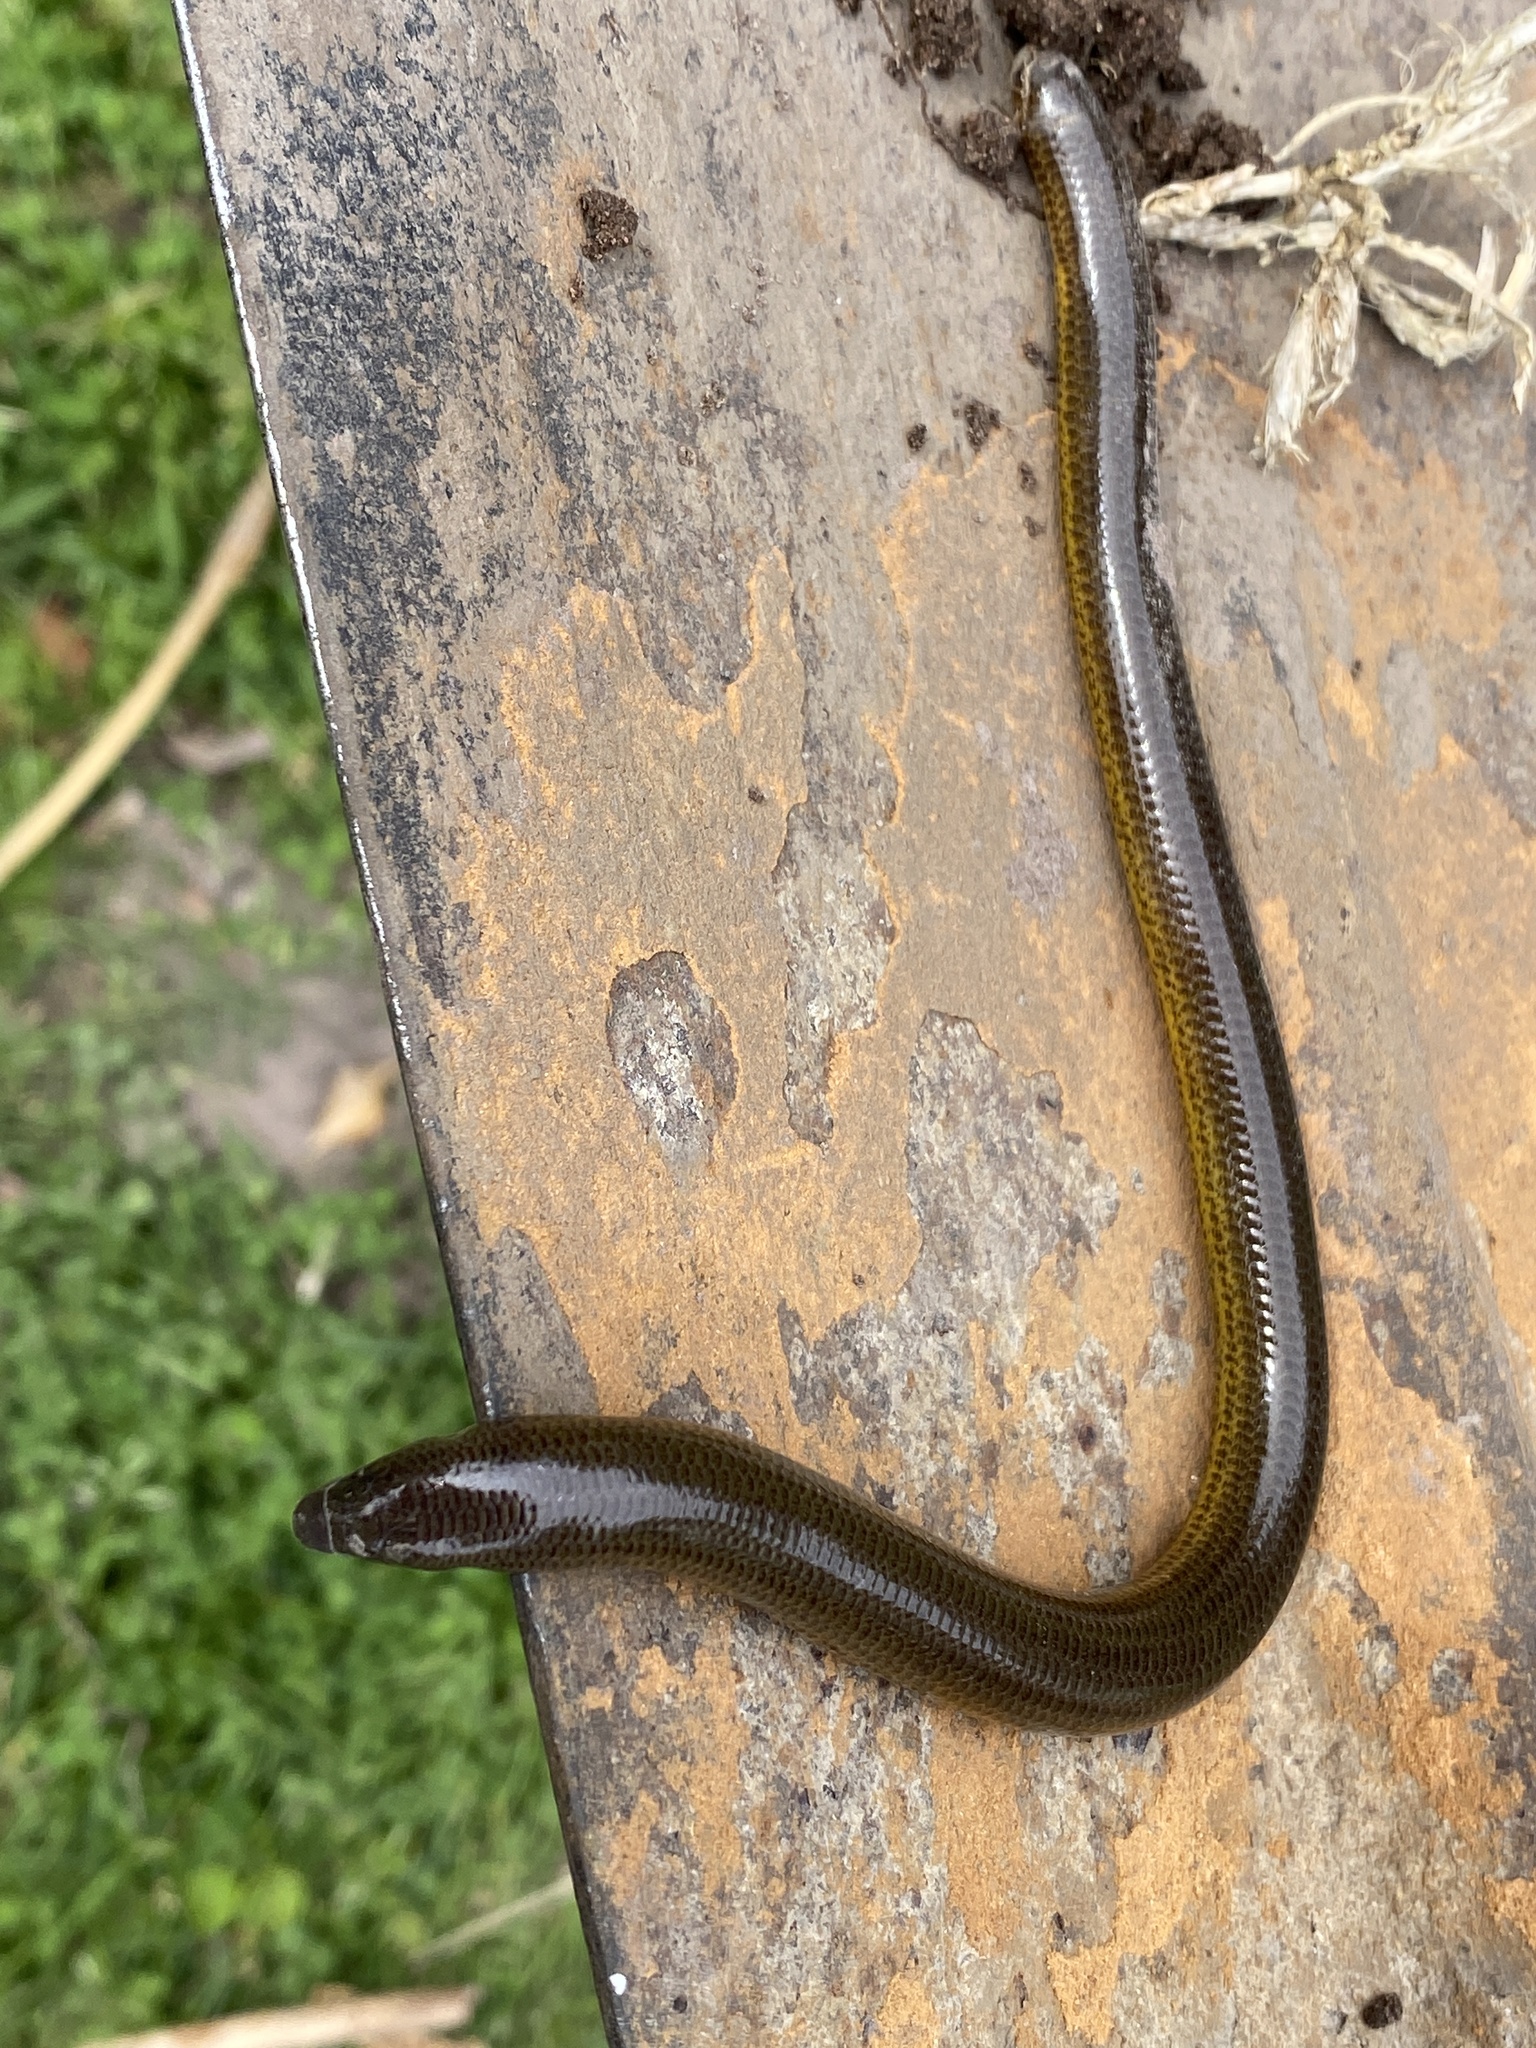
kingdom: Animalia
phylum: Chordata
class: Squamata
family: Scincidae
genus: Acontias
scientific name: Acontias meleagris
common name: Cape legless skink
